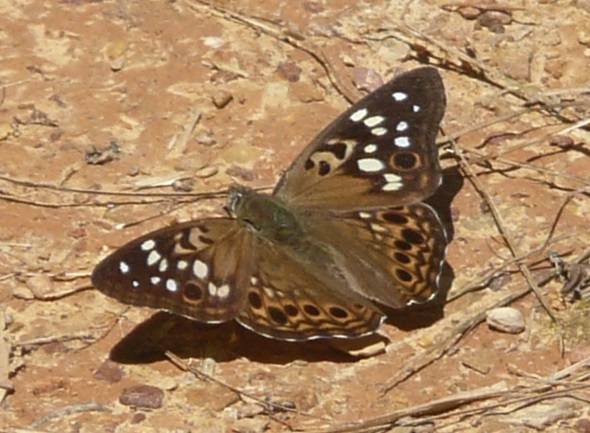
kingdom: Animalia
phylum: Arthropoda
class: Insecta
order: Lepidoptera
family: Nymphalidae
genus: Asterocampa
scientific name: Asterocampa celtis
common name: Hackberry emperor
